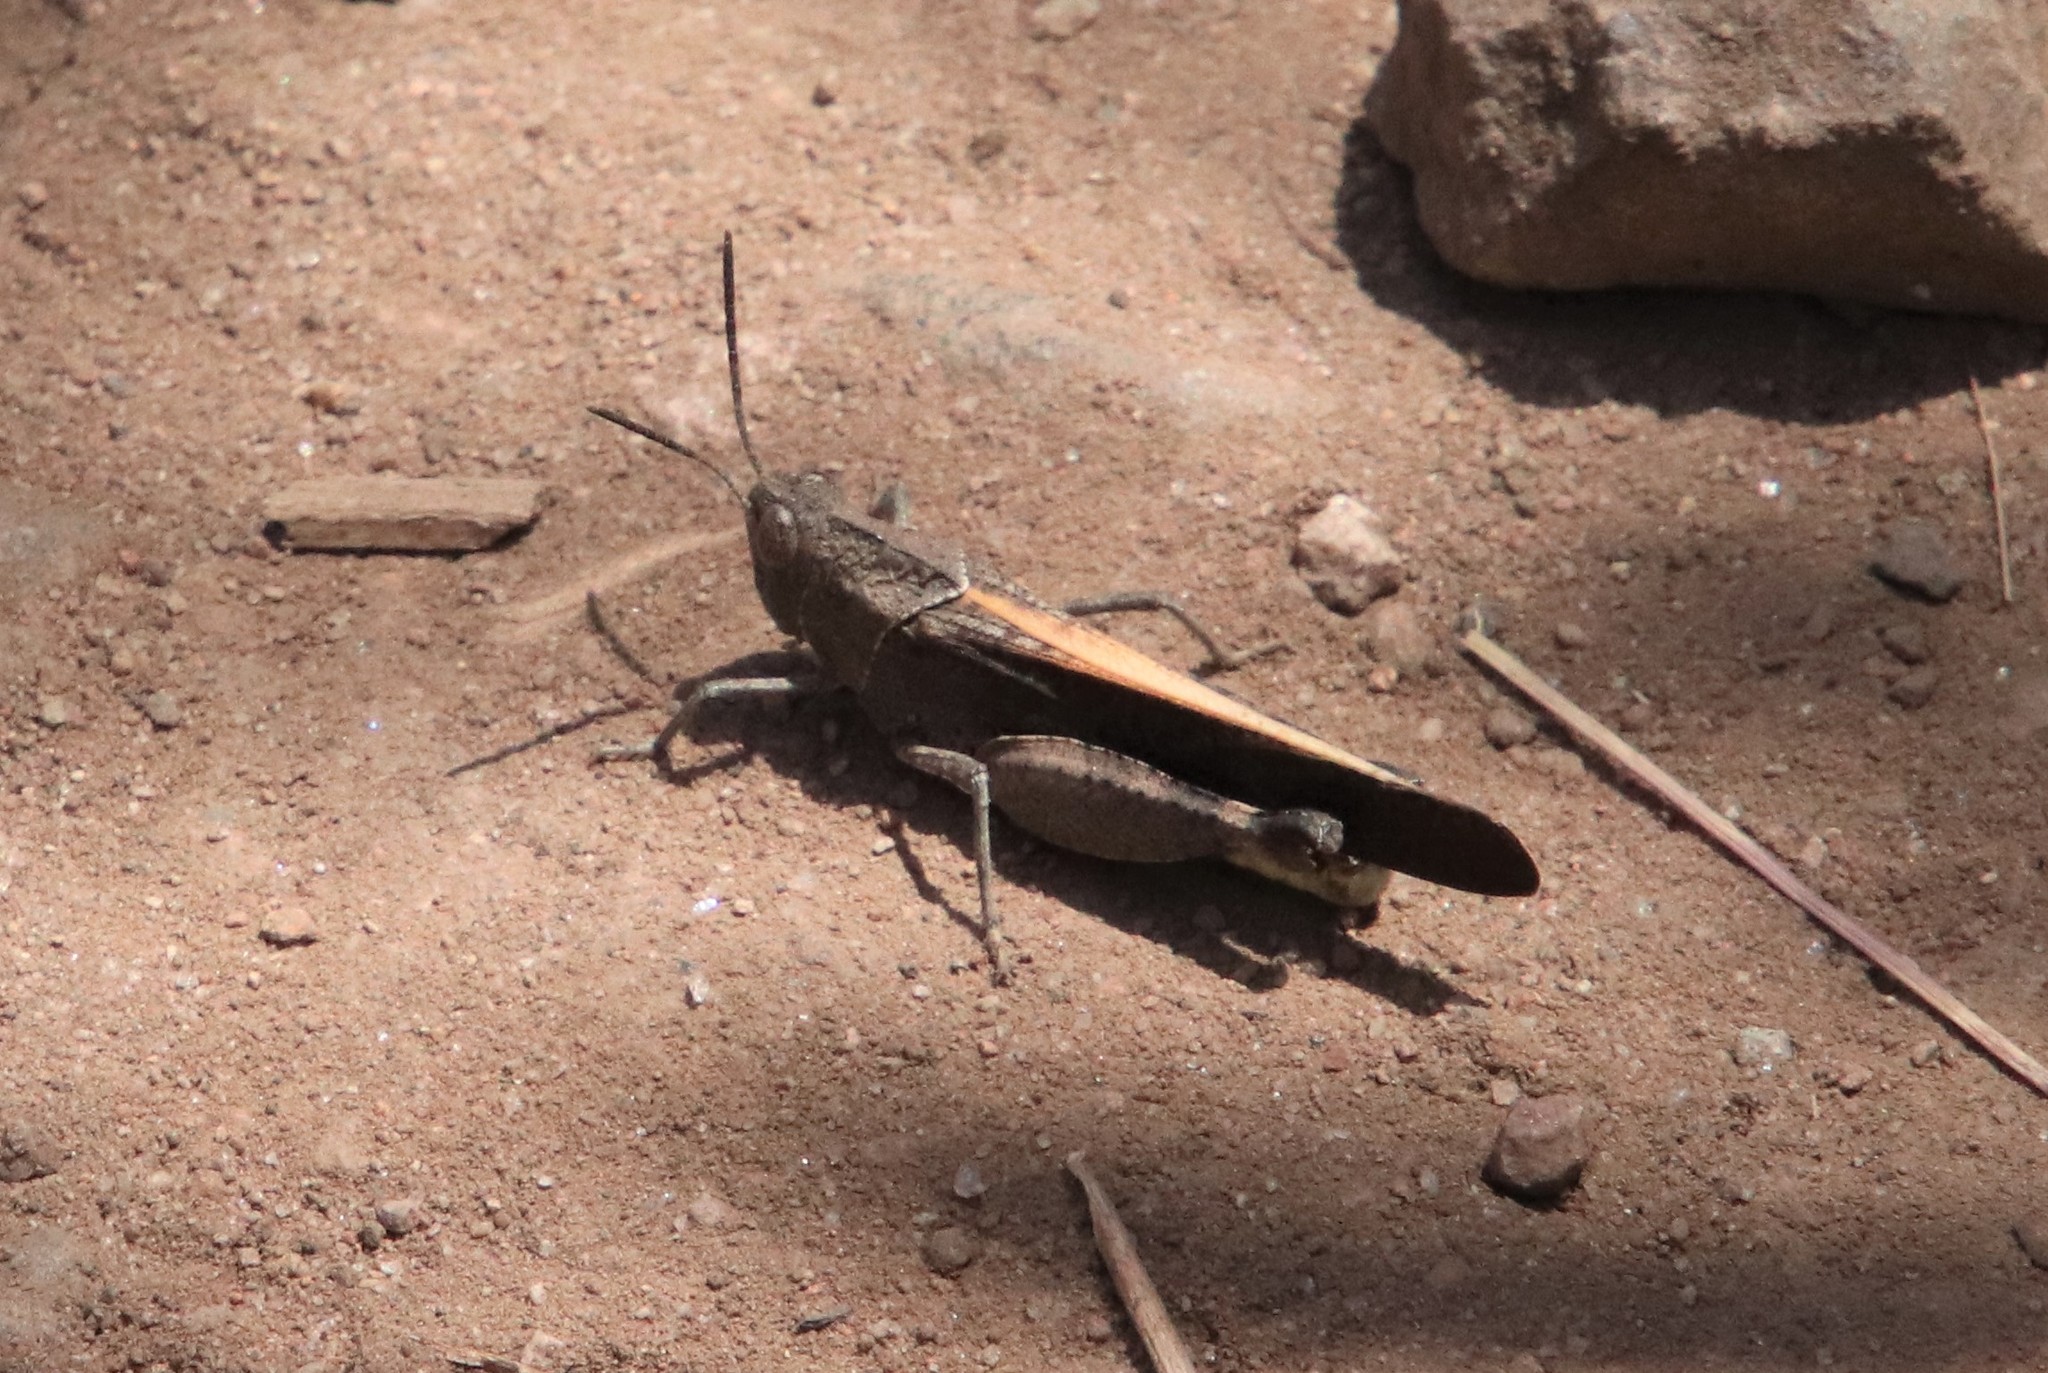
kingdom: Animalia
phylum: Arthropoda
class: Insecta
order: Orthoptera
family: Acrididae
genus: Arphia
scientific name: Arphia ramona
